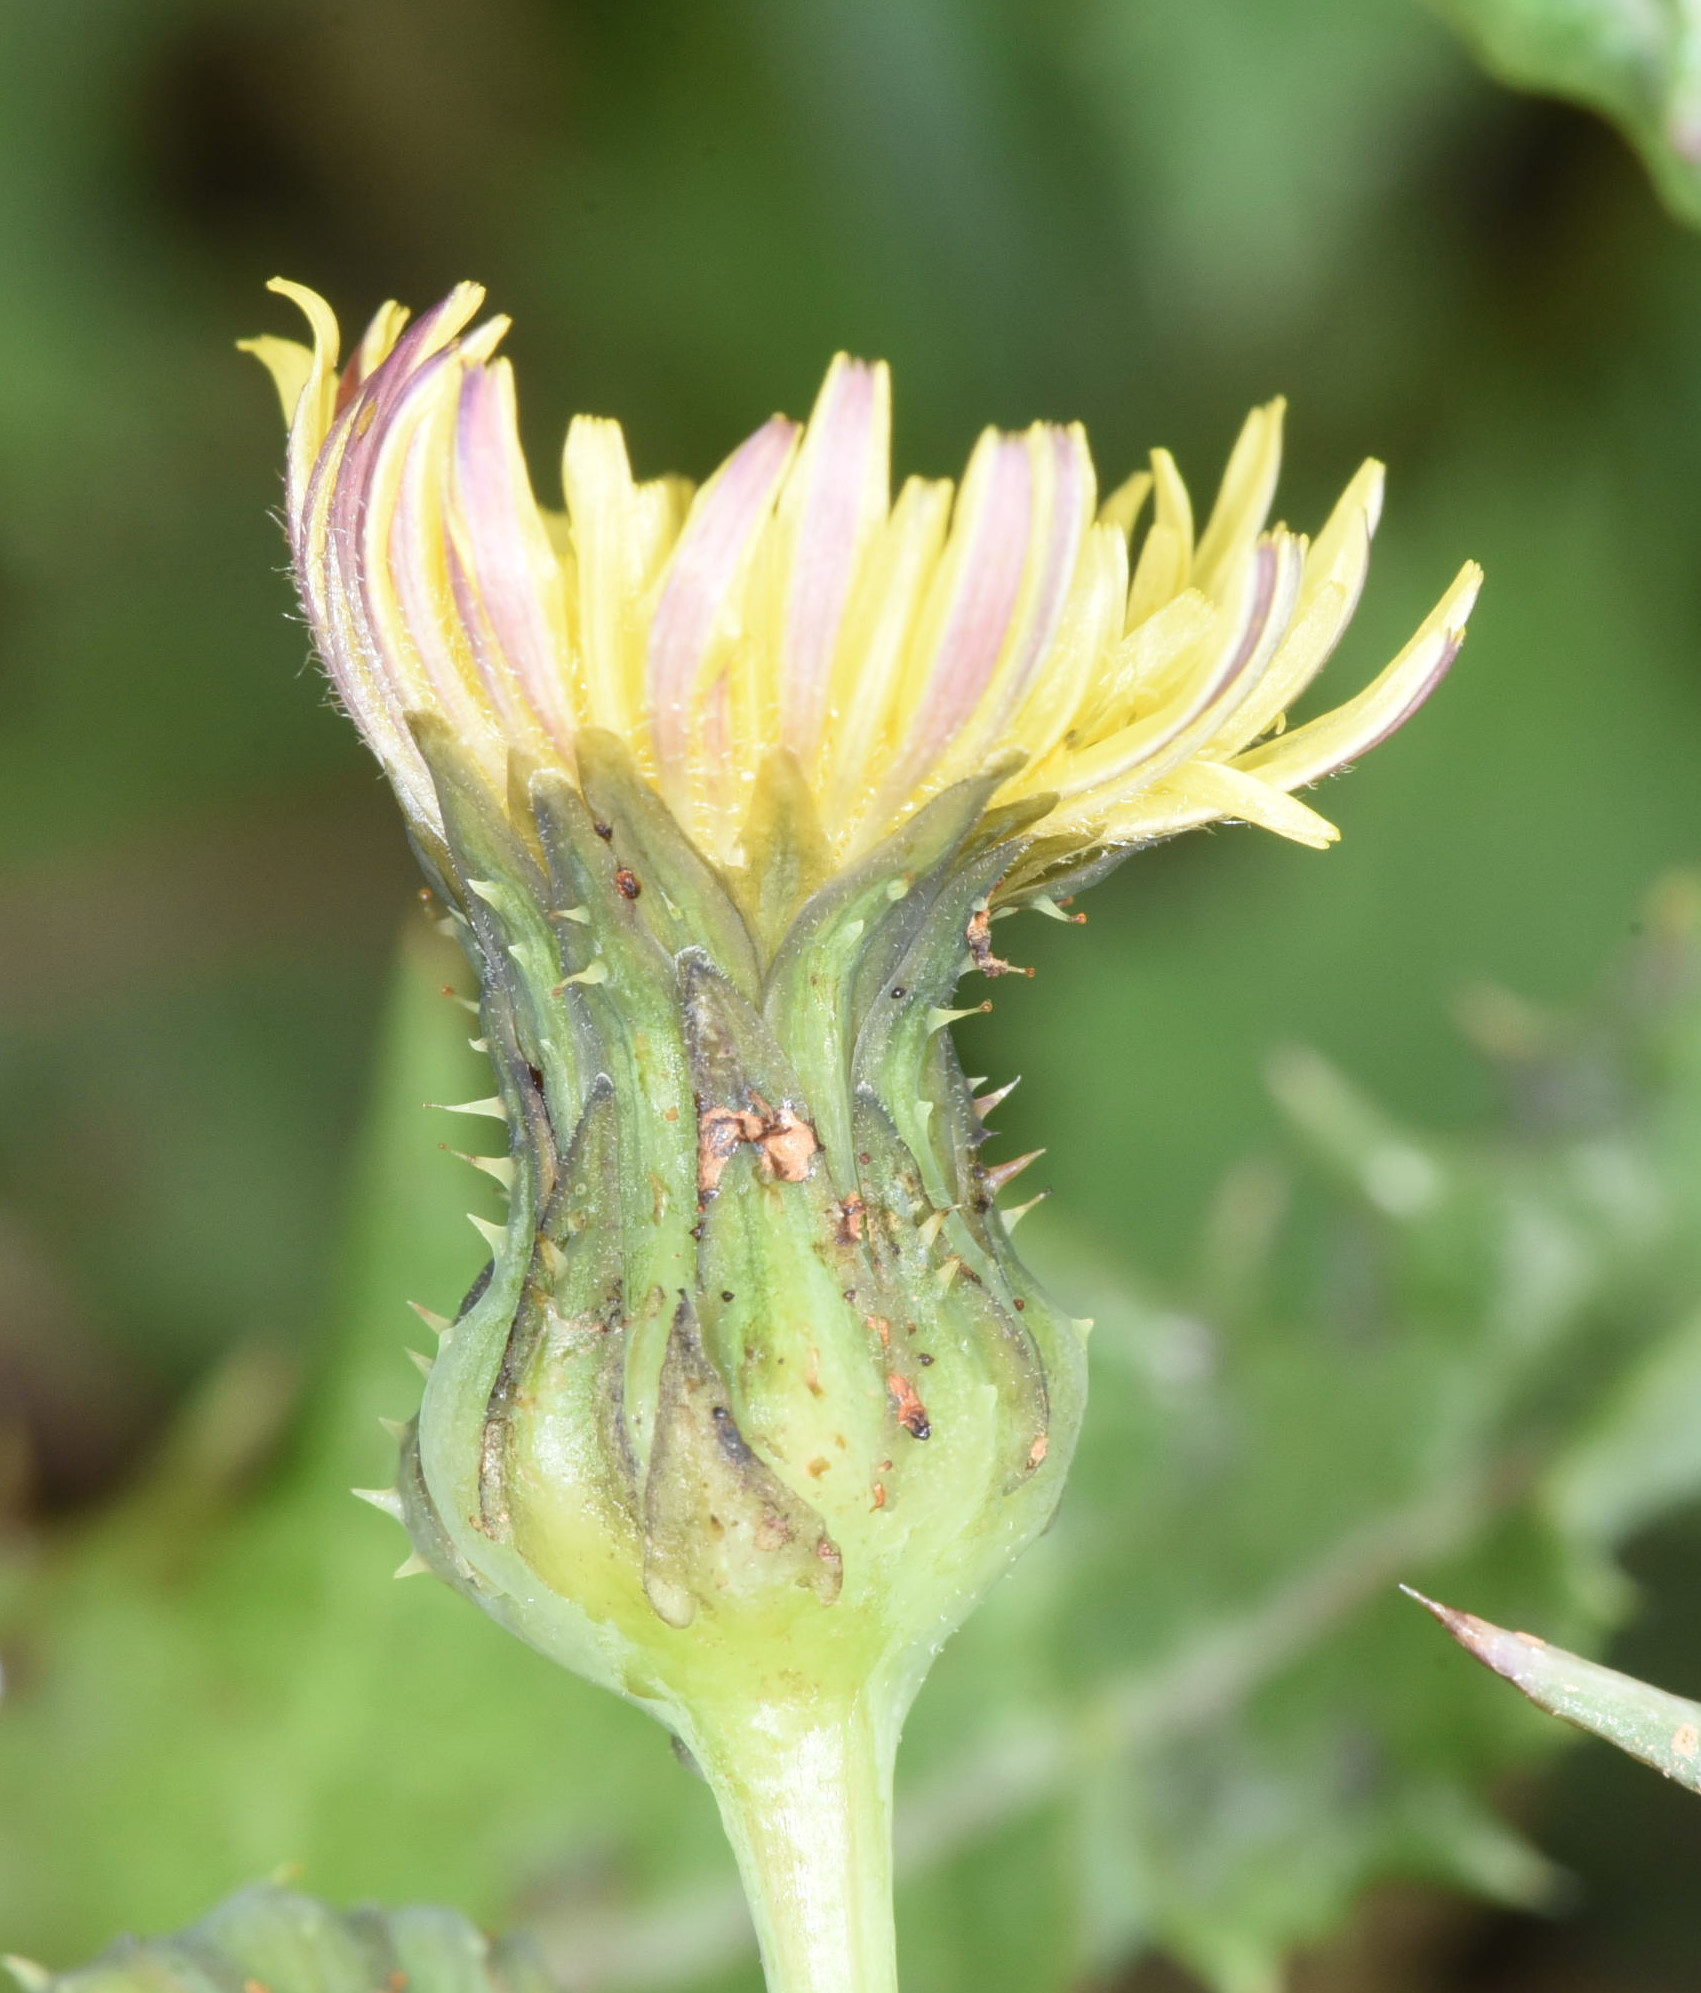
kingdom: Plantae
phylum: Tracheophyta
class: Magnoliopsida
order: Asterales
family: Asteraceae
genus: Sonchus
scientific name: Sonchus asper
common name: Prickly sow-thistle
